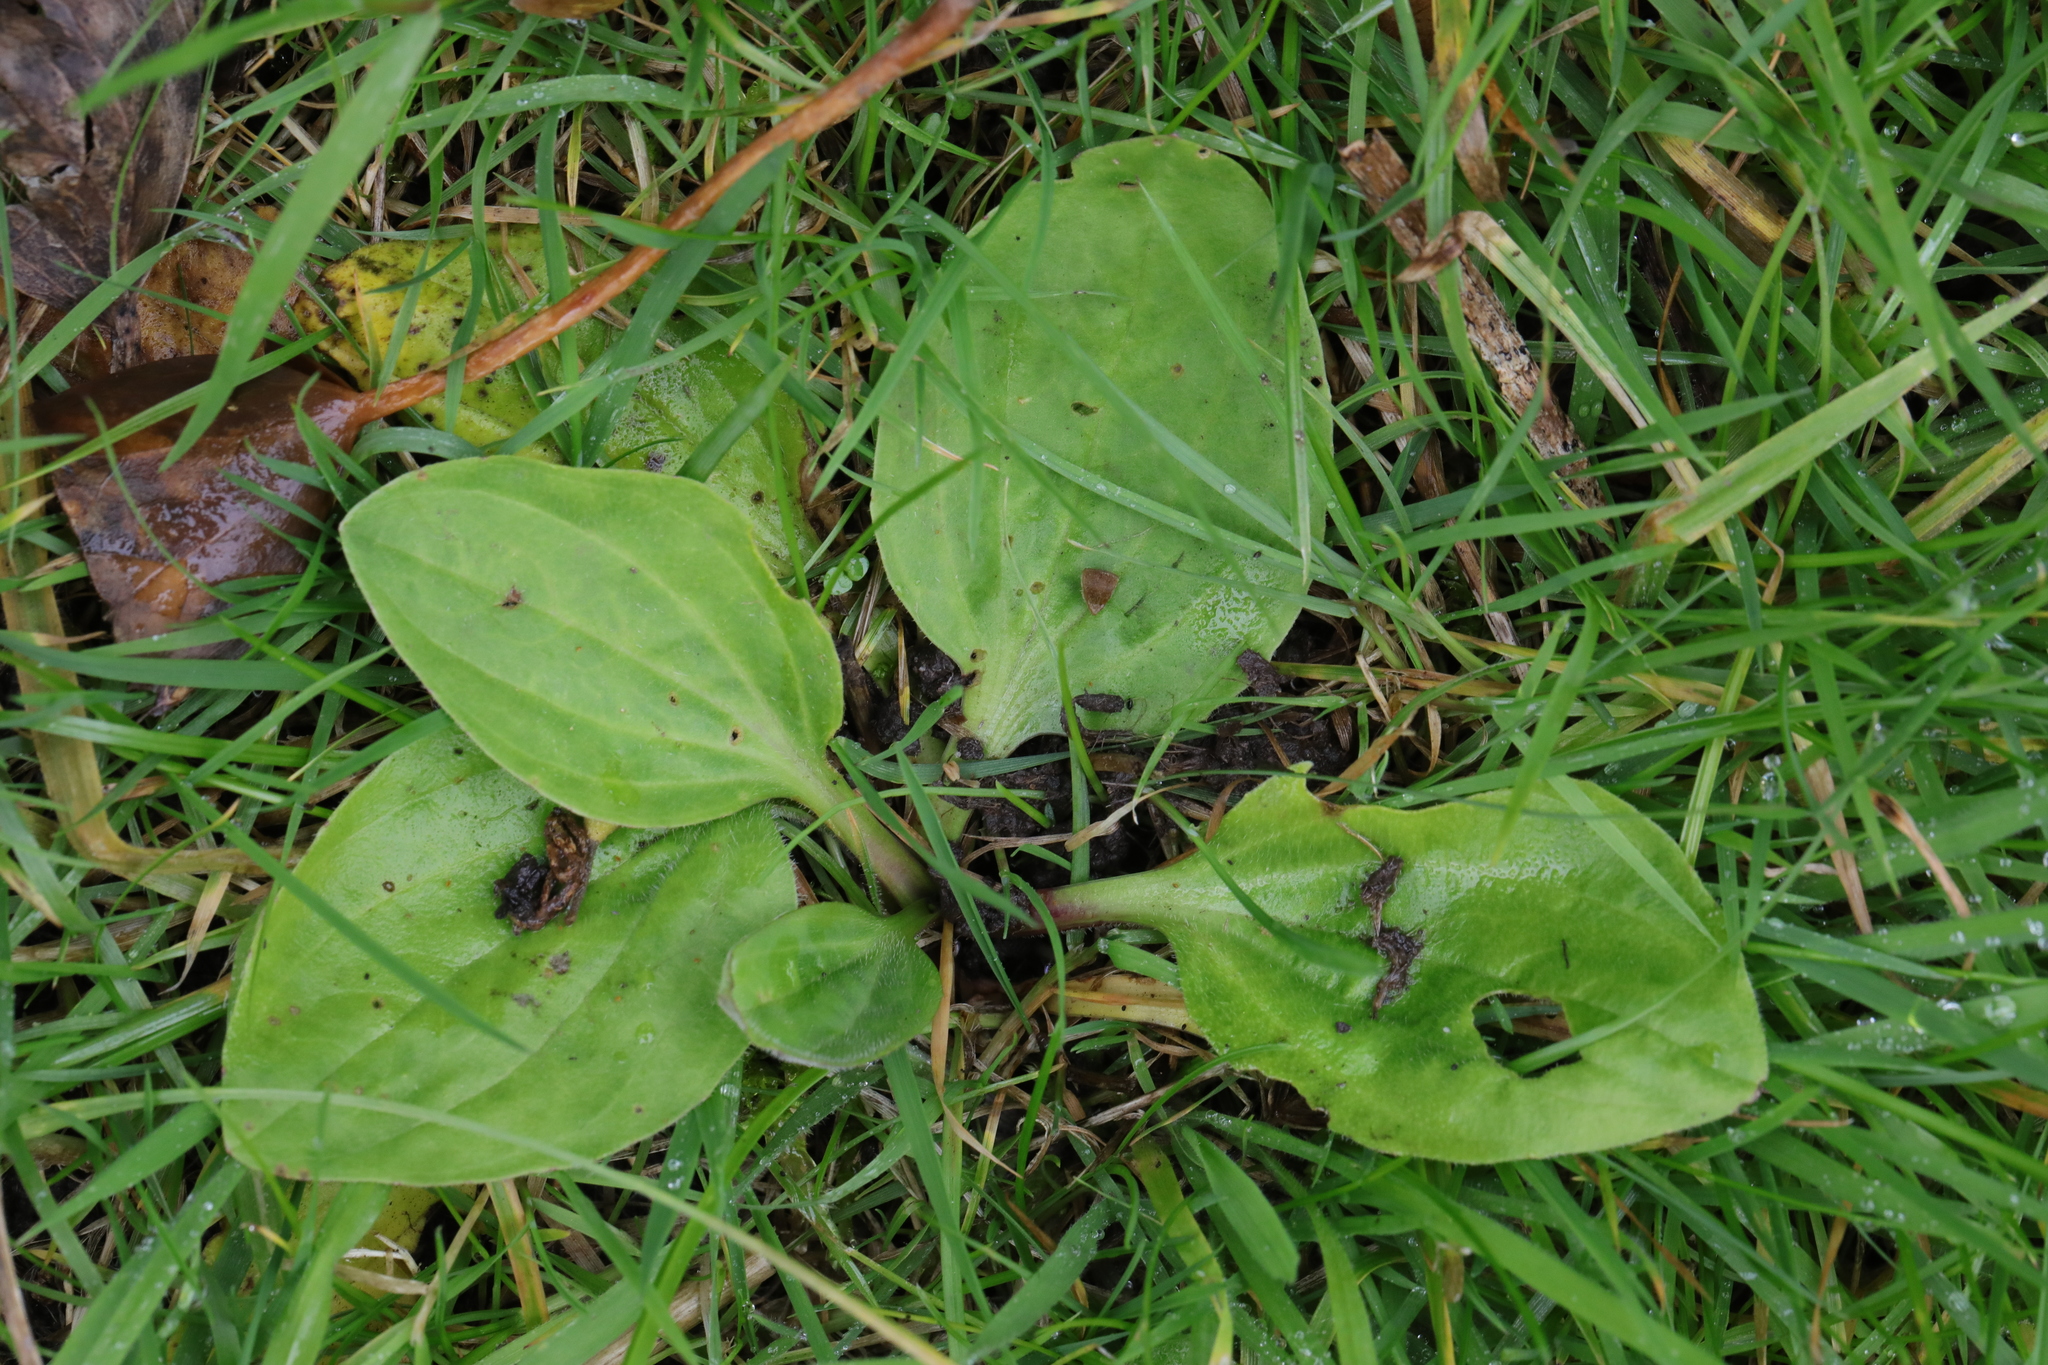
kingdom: Plantae
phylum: Tracheophyta
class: Magnoliopsida
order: Lamiales
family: Plantaginaceae
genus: Plantago
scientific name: Plantago major
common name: Common plantain
